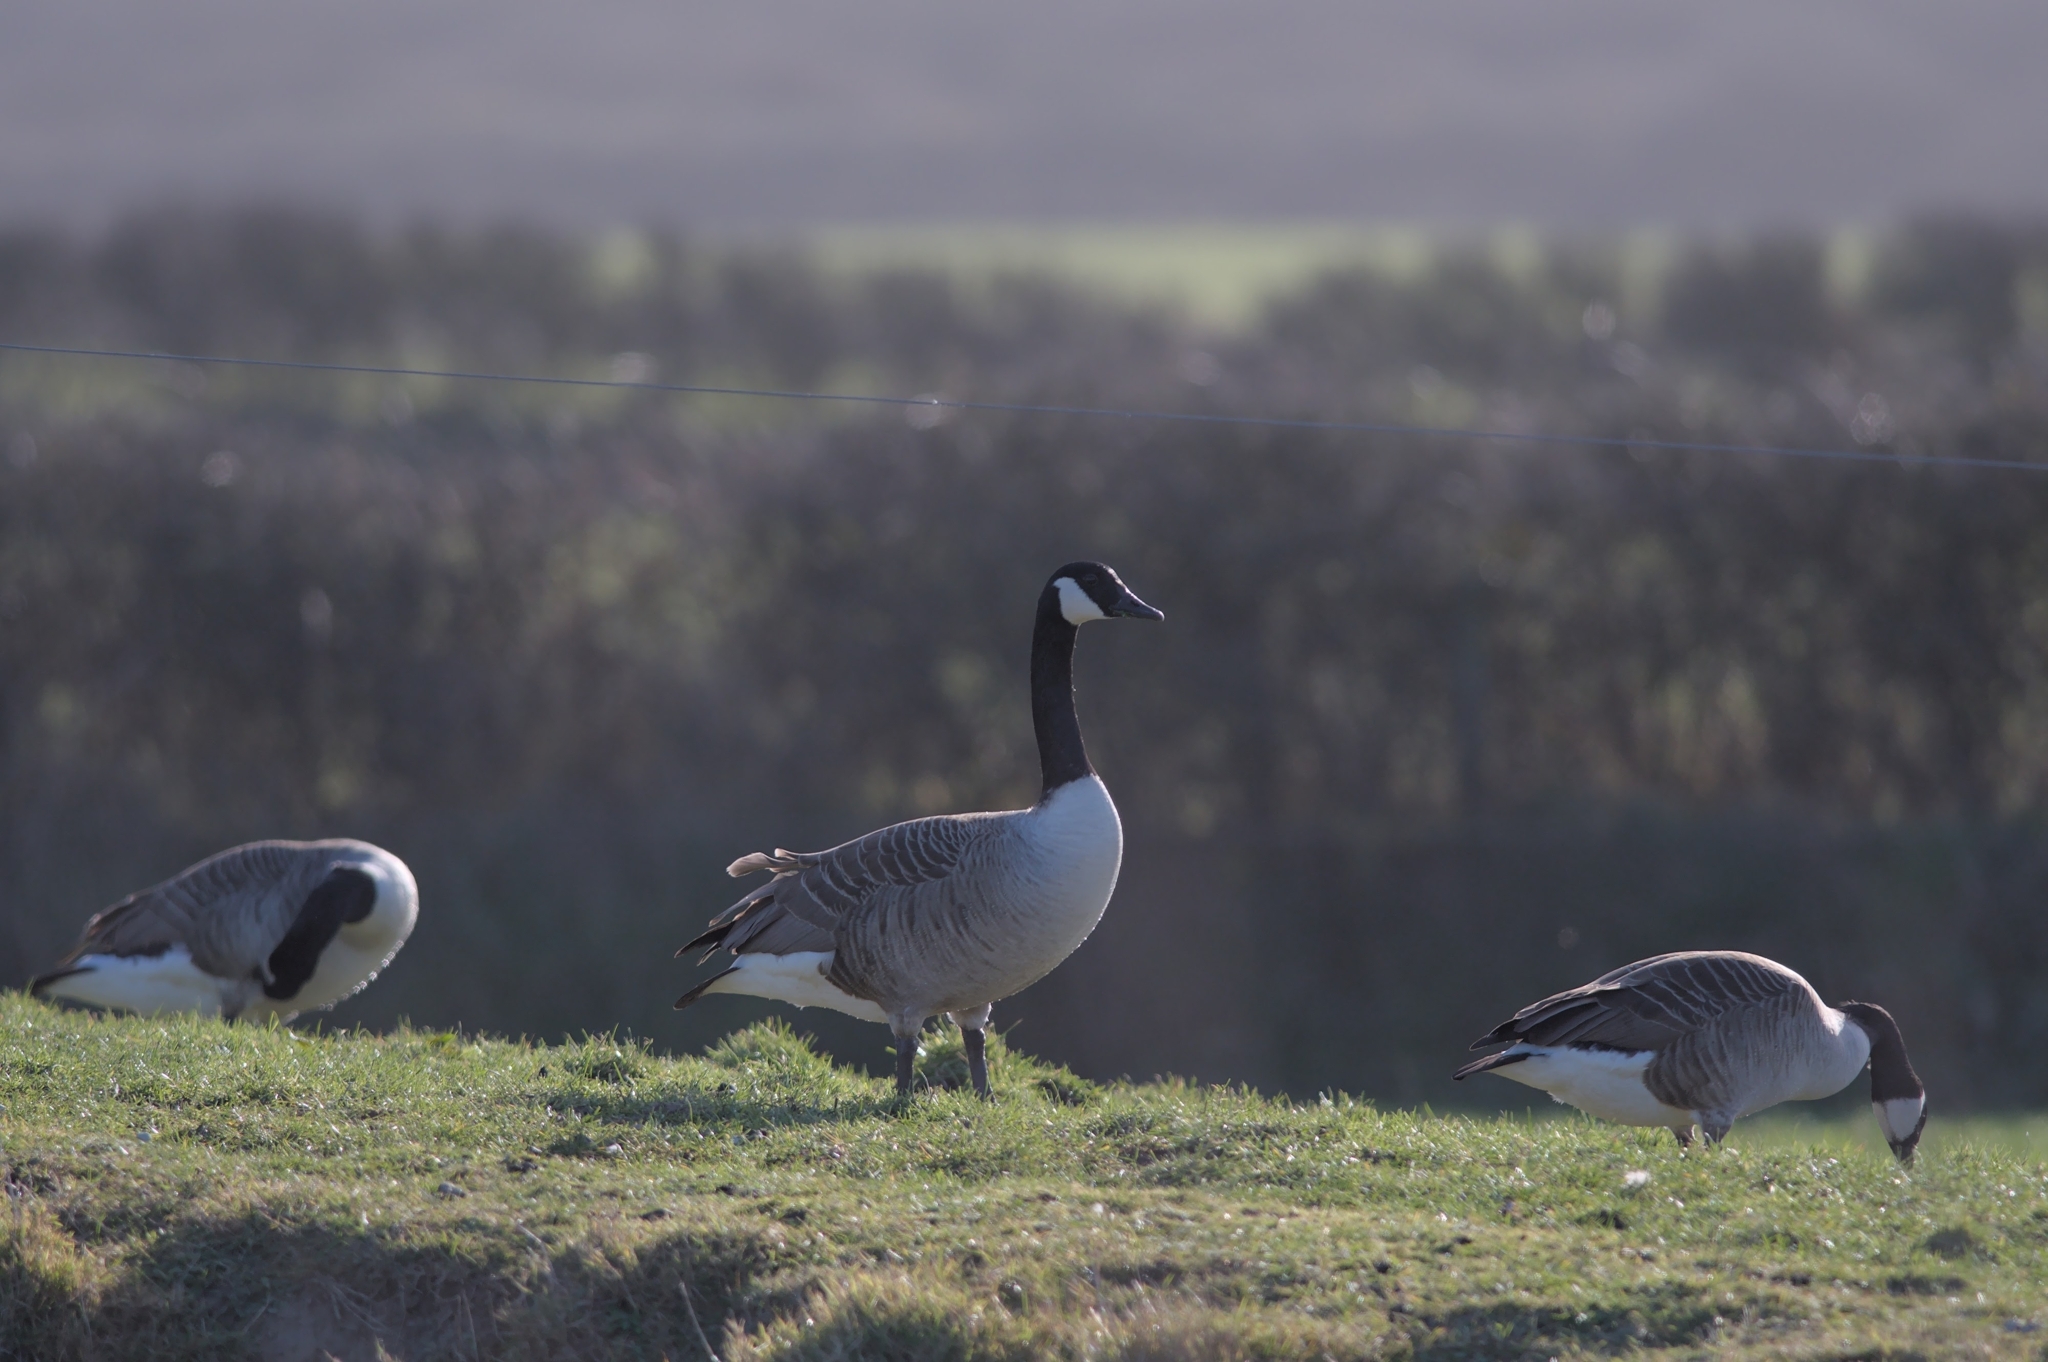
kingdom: Animalia
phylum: Chordata
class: Aves
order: Anseriformes
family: Anatidae
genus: Branta
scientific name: Branta canadensis
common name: Canada goose
